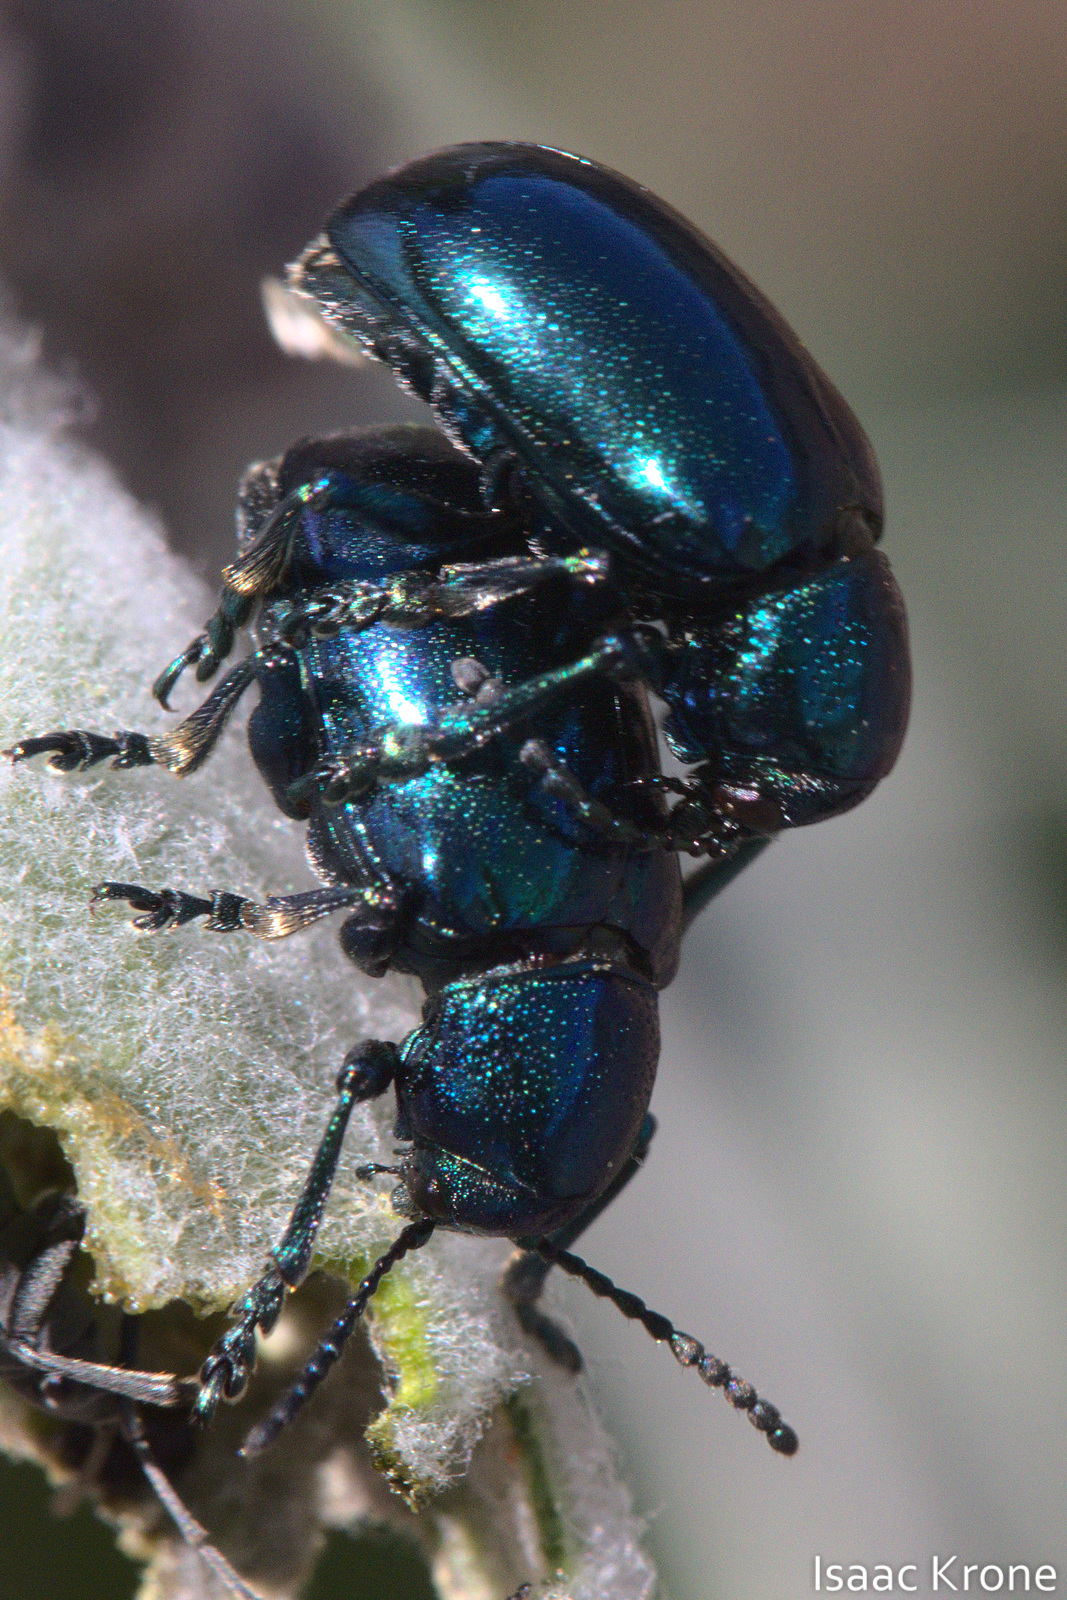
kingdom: Animalia
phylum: Arthropoda
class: Insecta
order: Coleoptera
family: Chrysomelidae
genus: Chrysochus
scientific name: Chrysochus cobaltinus
